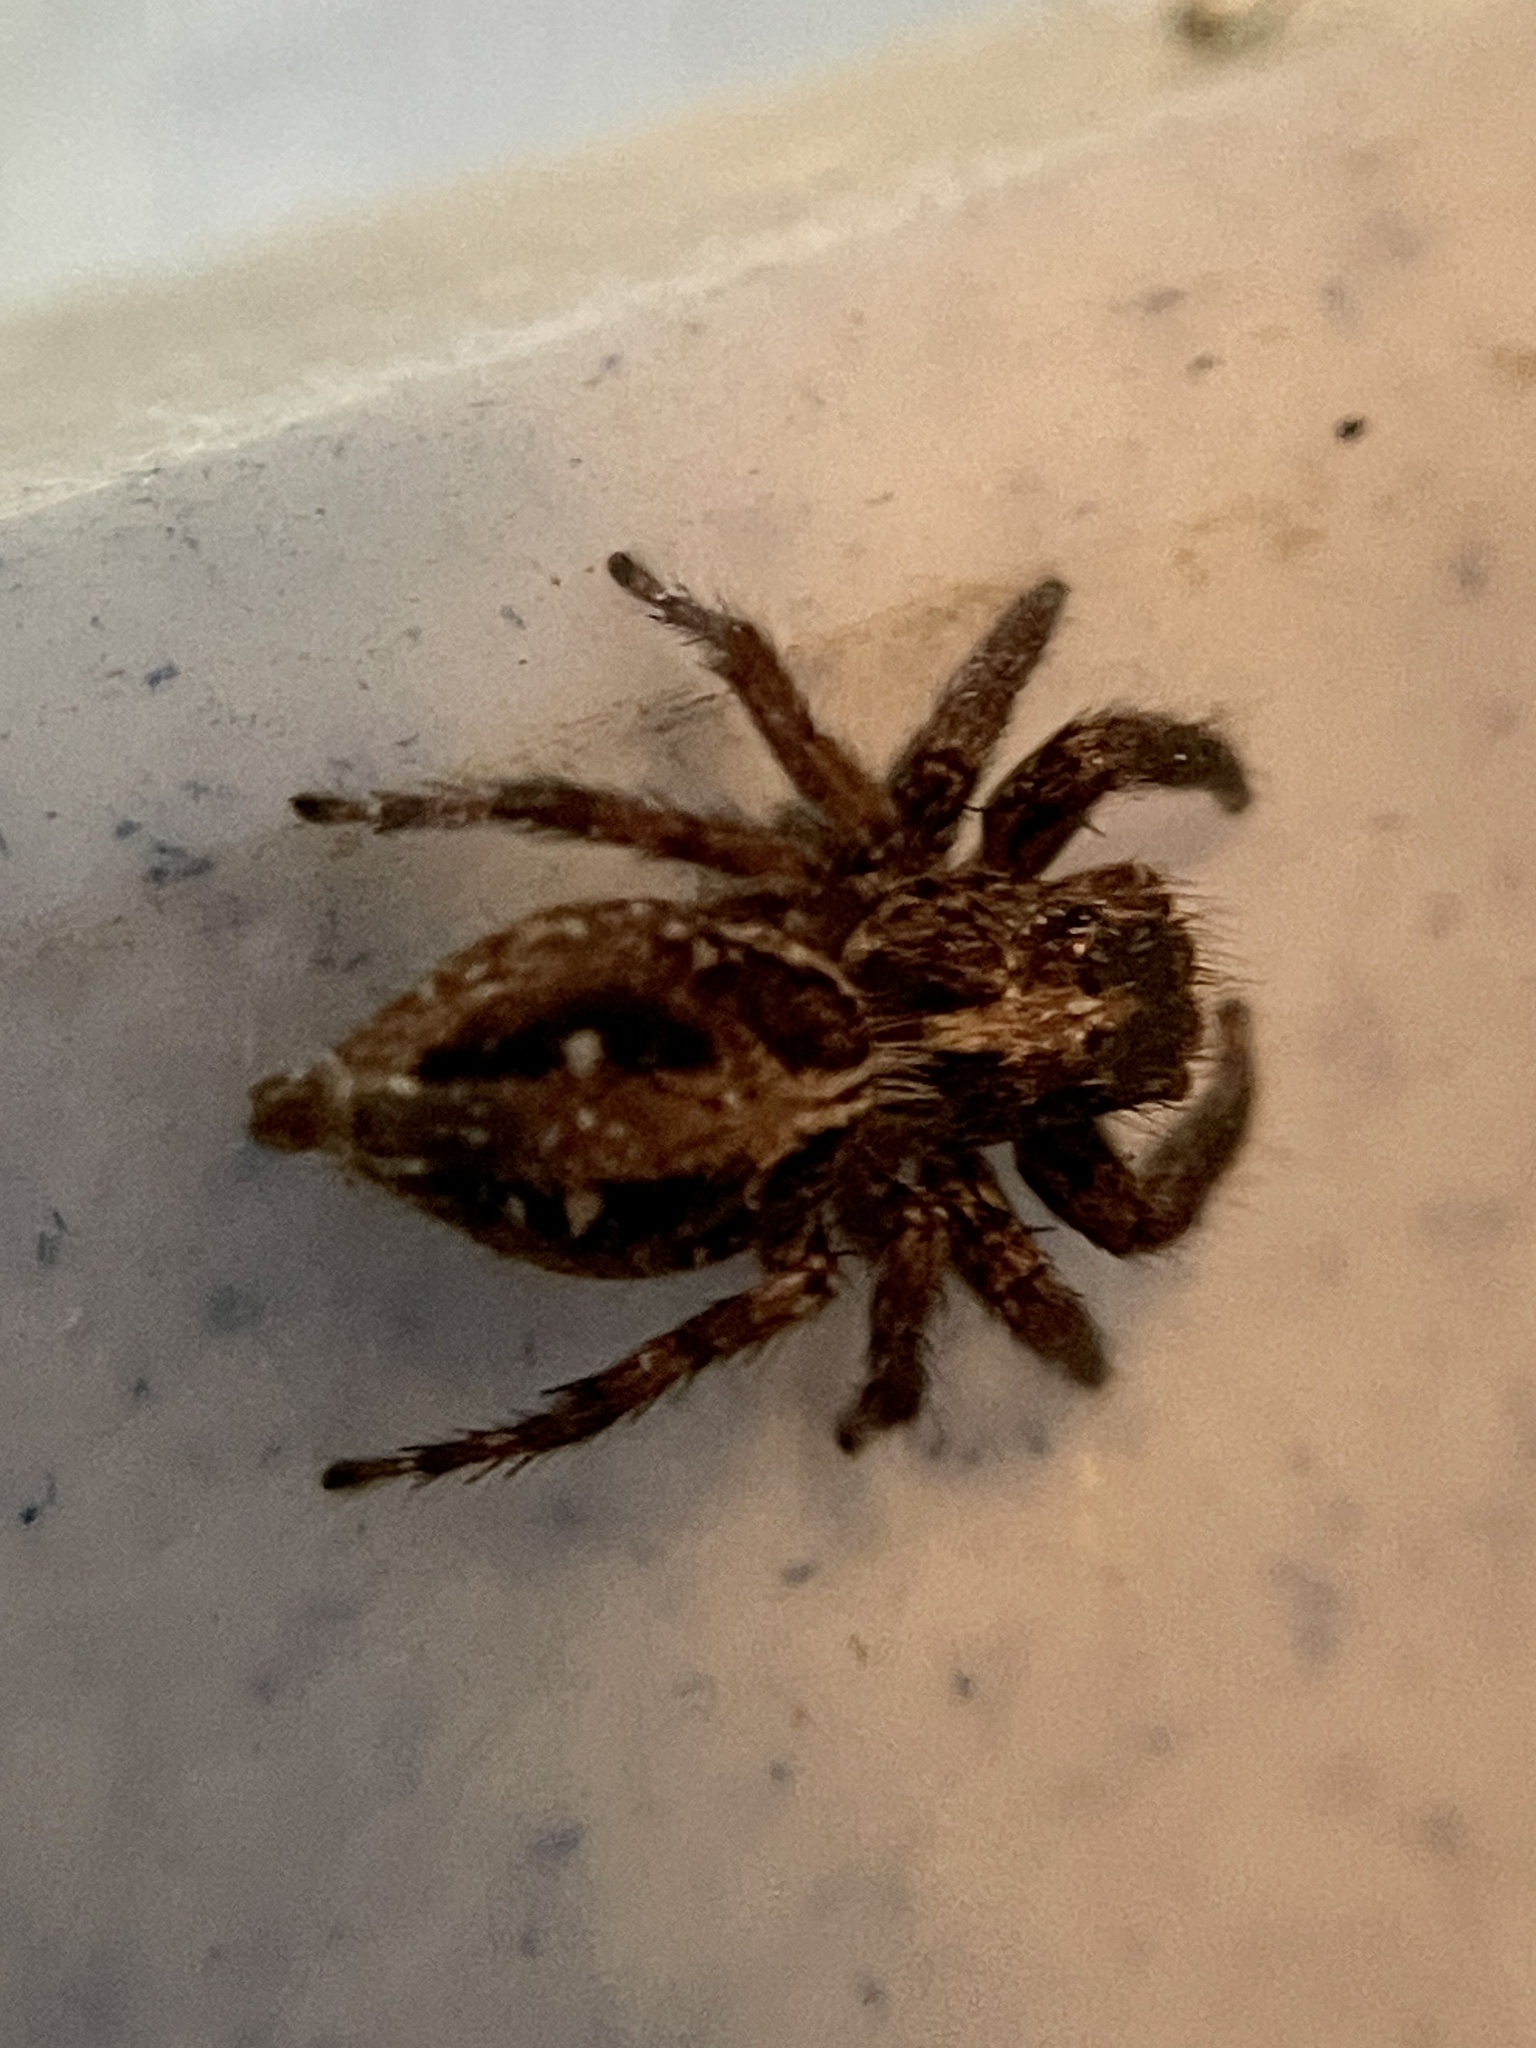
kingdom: Animalia
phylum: Arthropoda
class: Arachnida
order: Araneae
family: Salticidae
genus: Plexippus
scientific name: Plexippus paykulli
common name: Pantropical jumper
